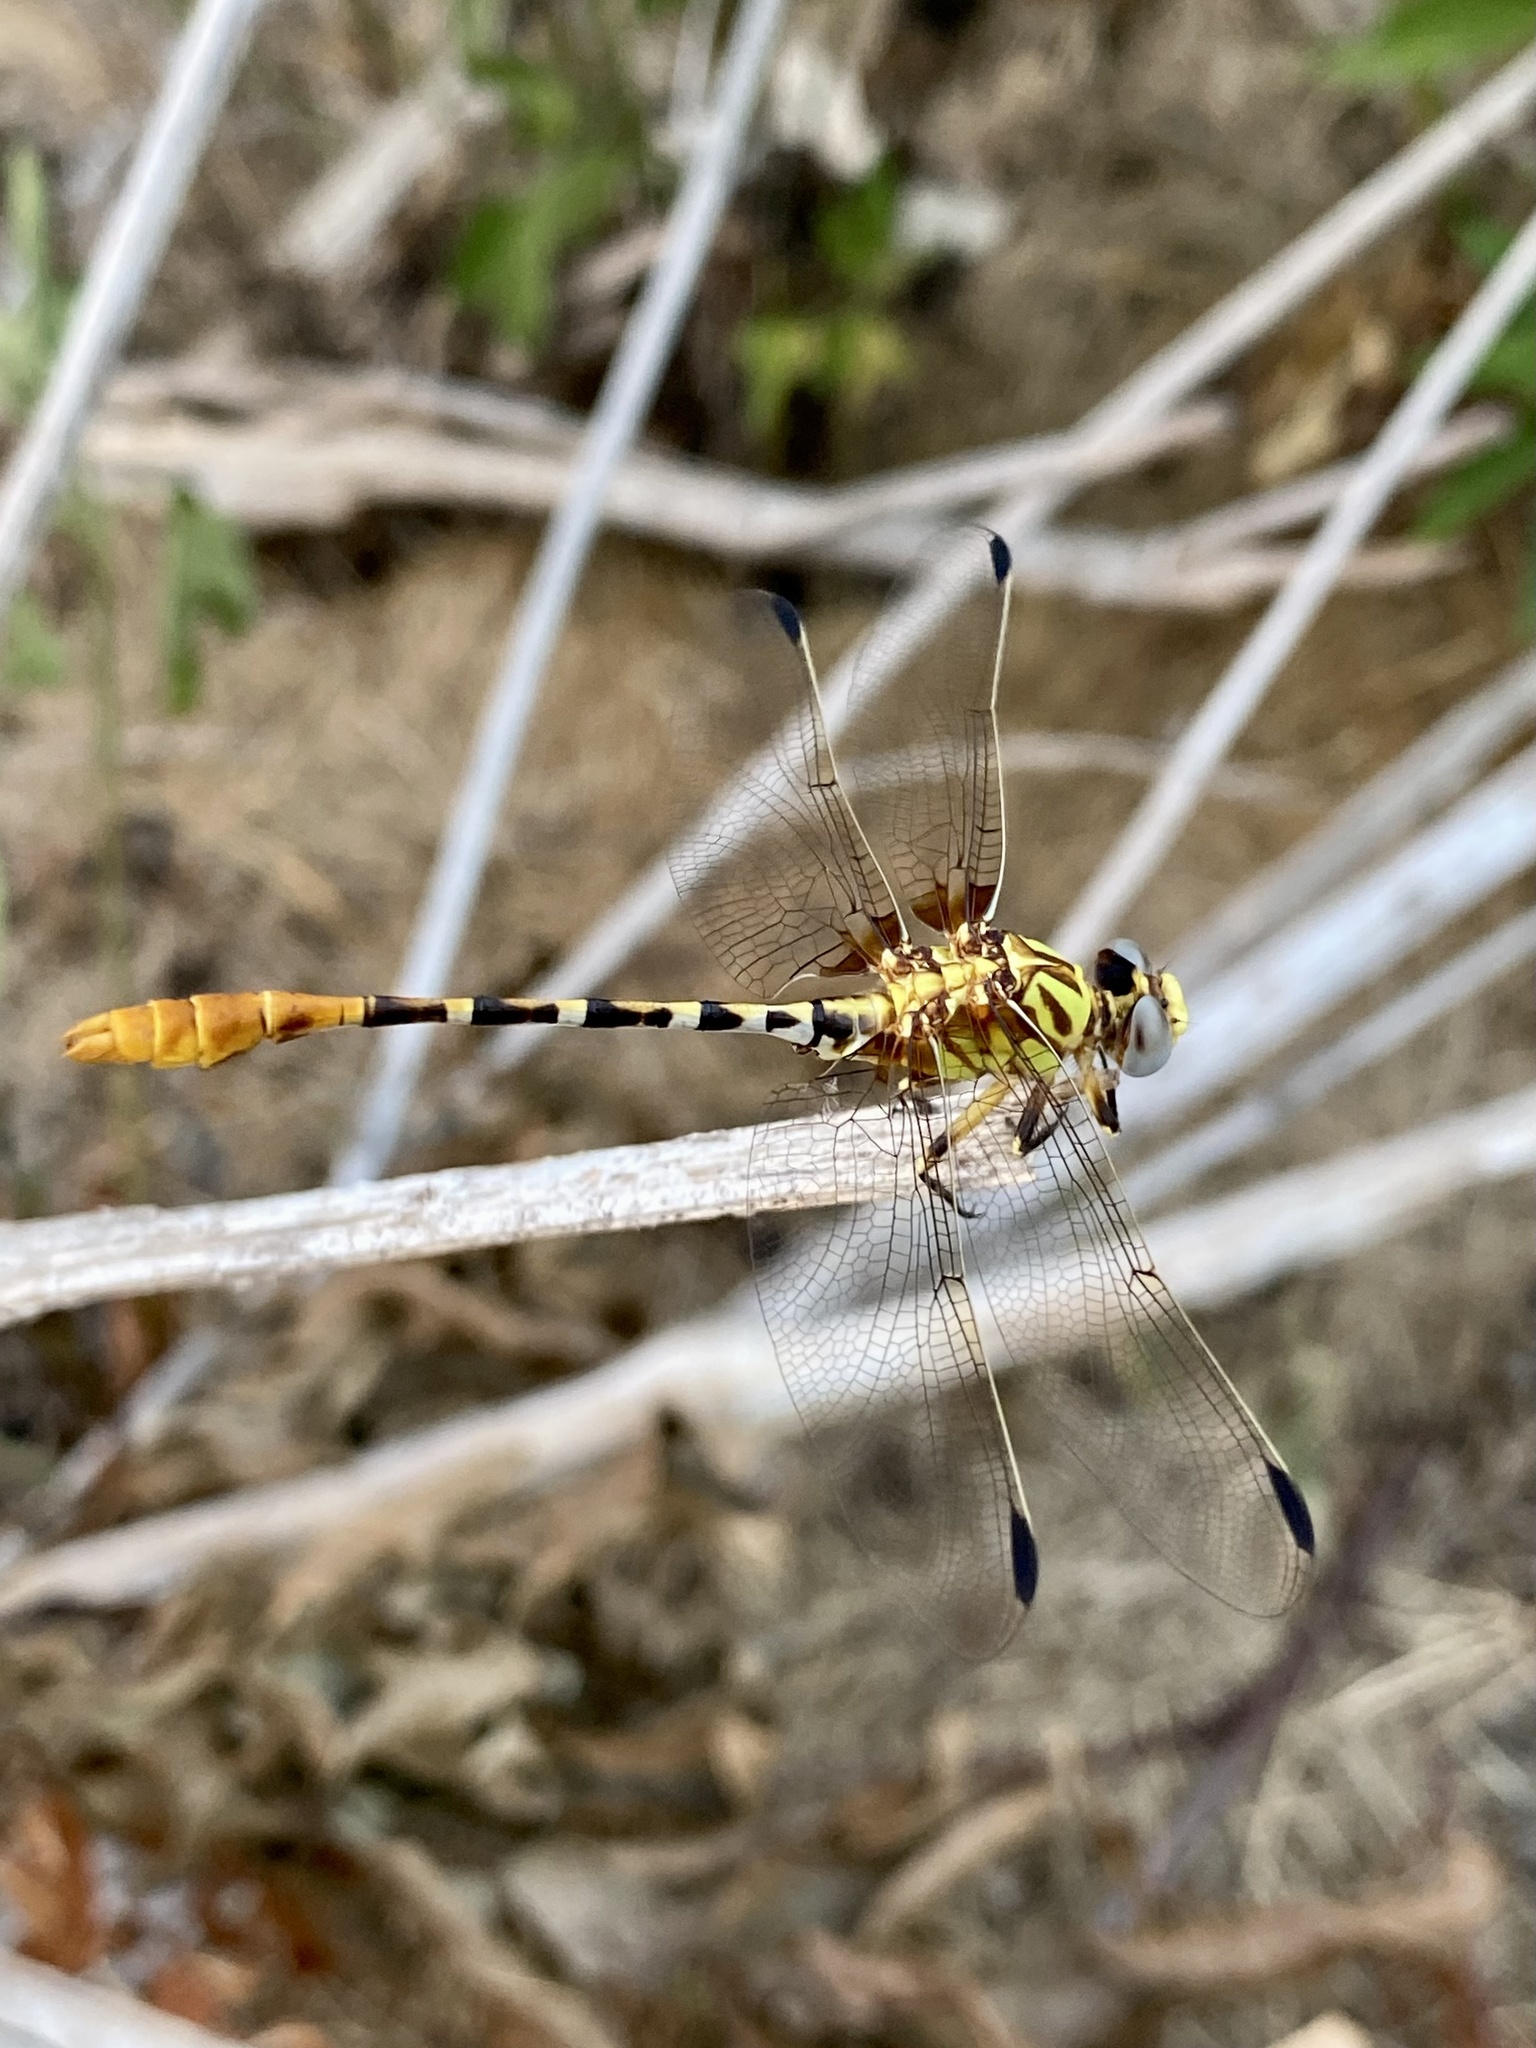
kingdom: Animalia
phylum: Arthropoda
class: Insecta
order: Odonata
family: Gomphidae
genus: Erpetogomphus
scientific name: Erpetogomphus designatus
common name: Eastern ringtail
